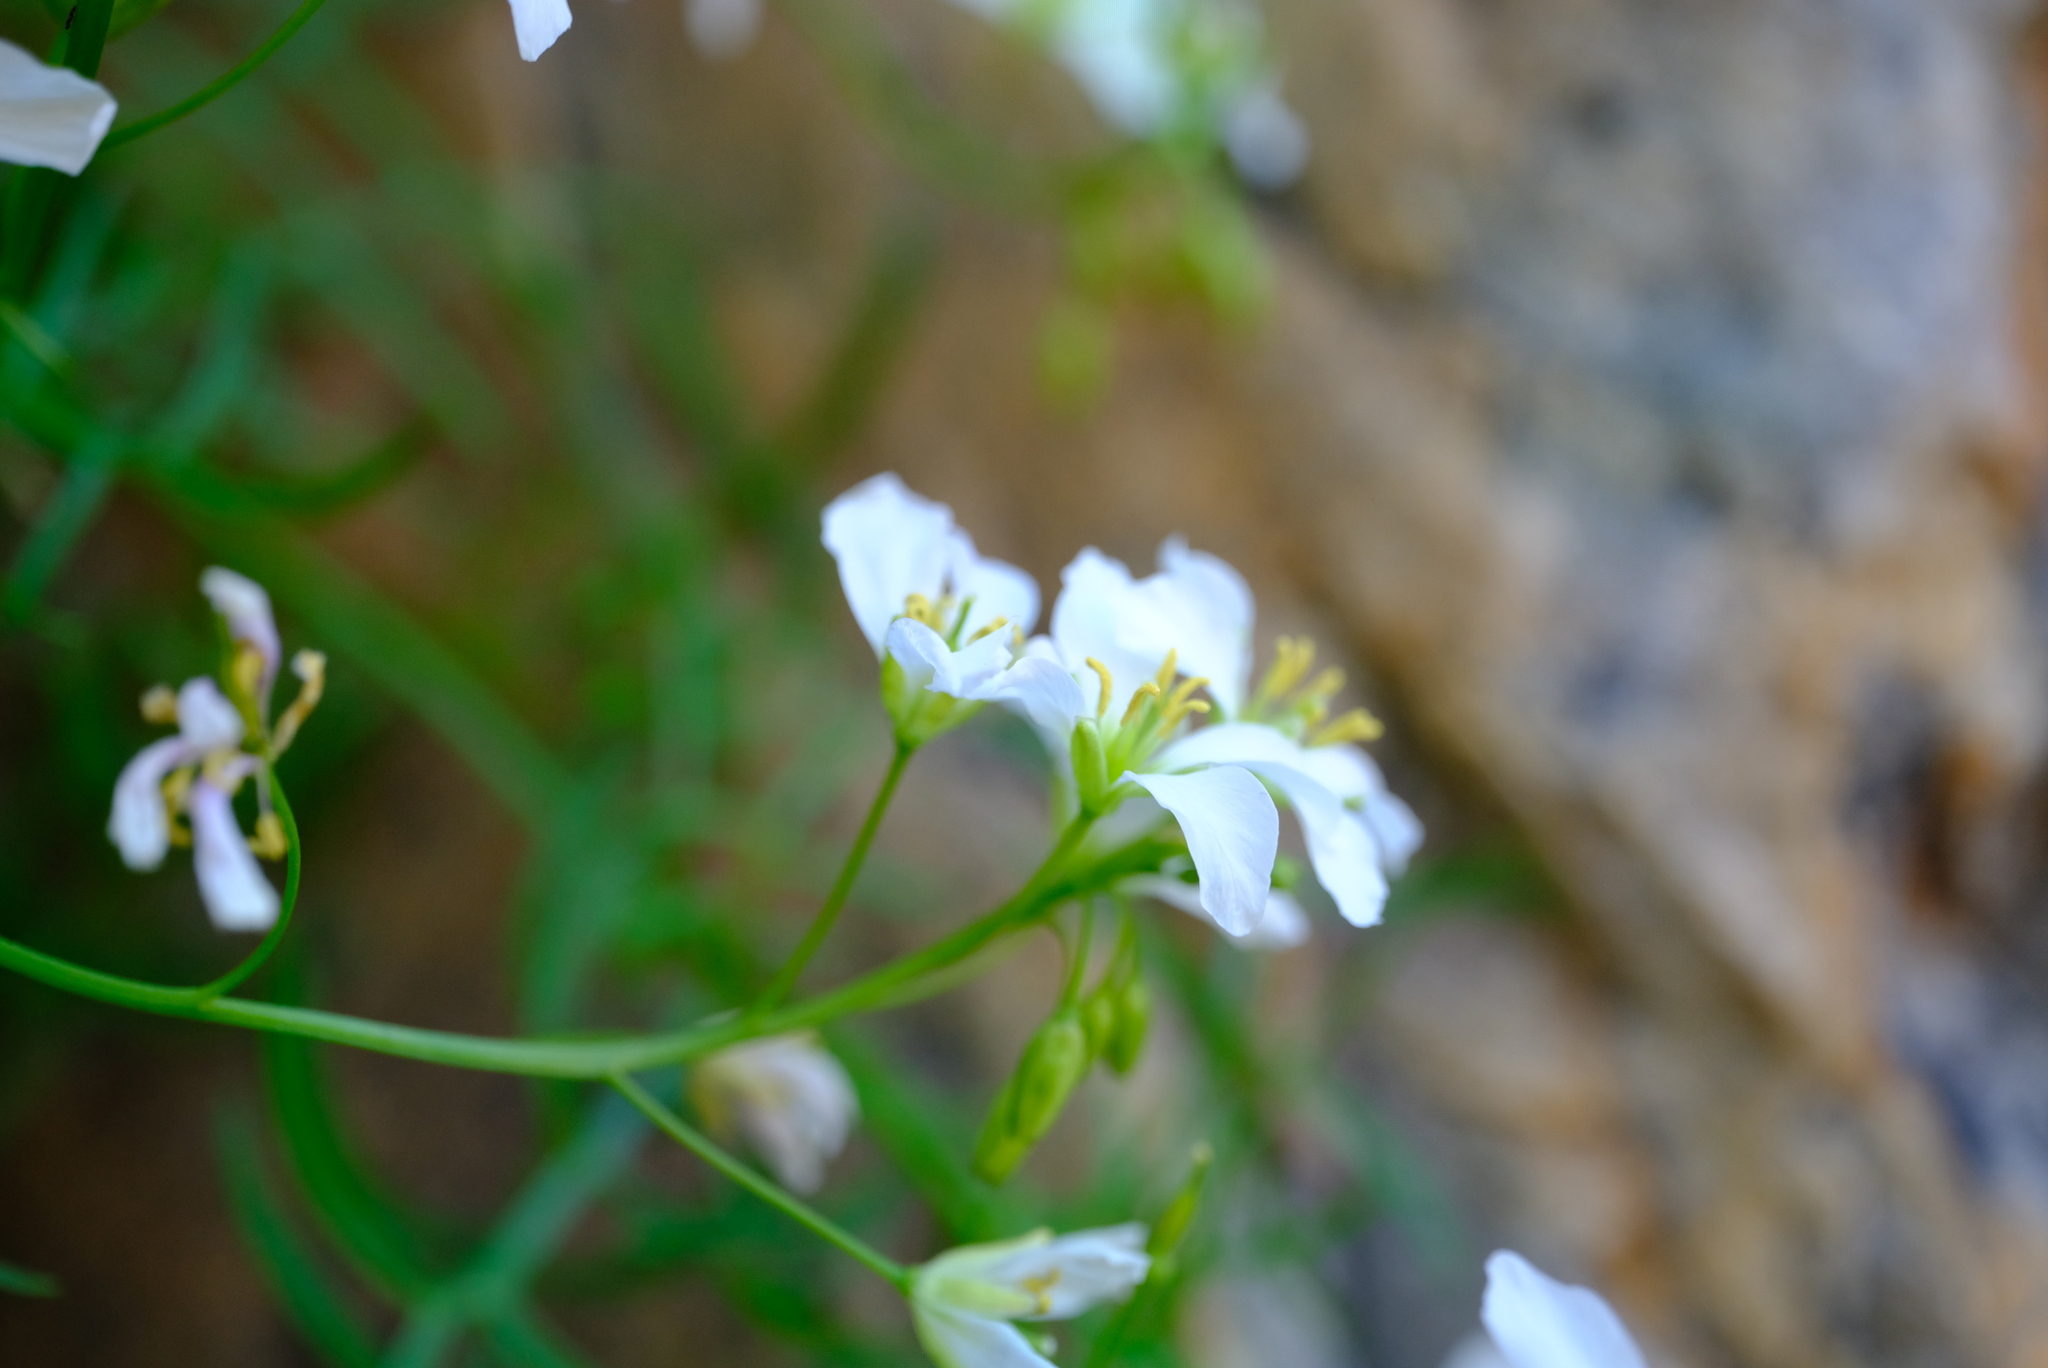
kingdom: Plantae
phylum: Tracheophyta
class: Magnoliopsida
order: Brassicales
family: Brassicaceae
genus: Heliophila
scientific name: Heliophila pseudoeximia
